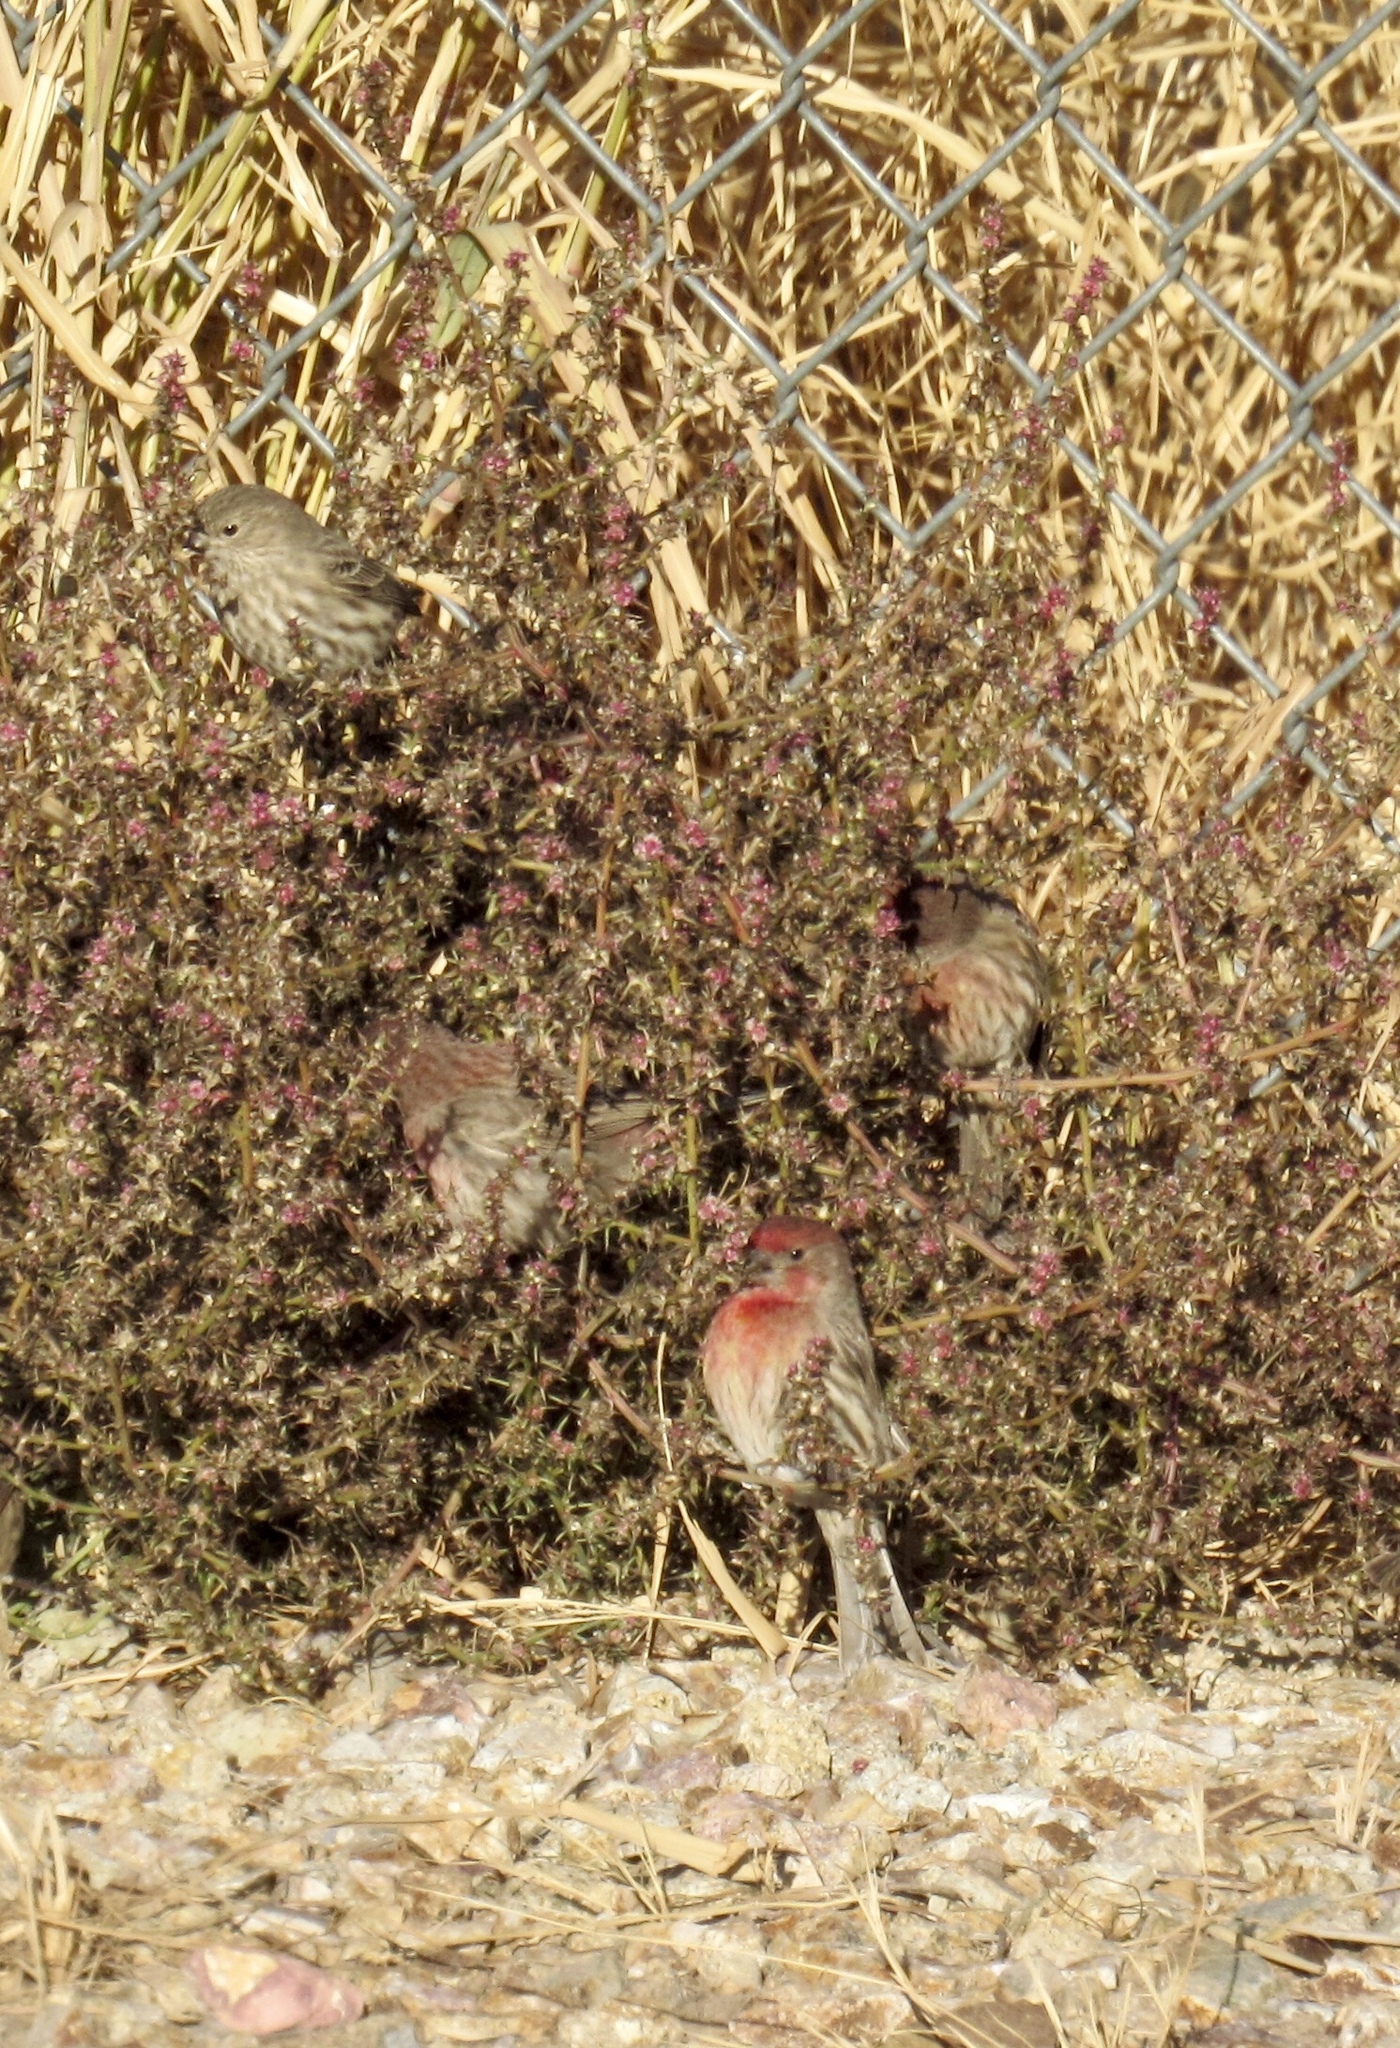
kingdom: Animalia
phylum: Chordata
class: Aves
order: Passeriformes
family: Fringillidae
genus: Haemorhous
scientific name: Haemorhous mexicanus
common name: House finch
